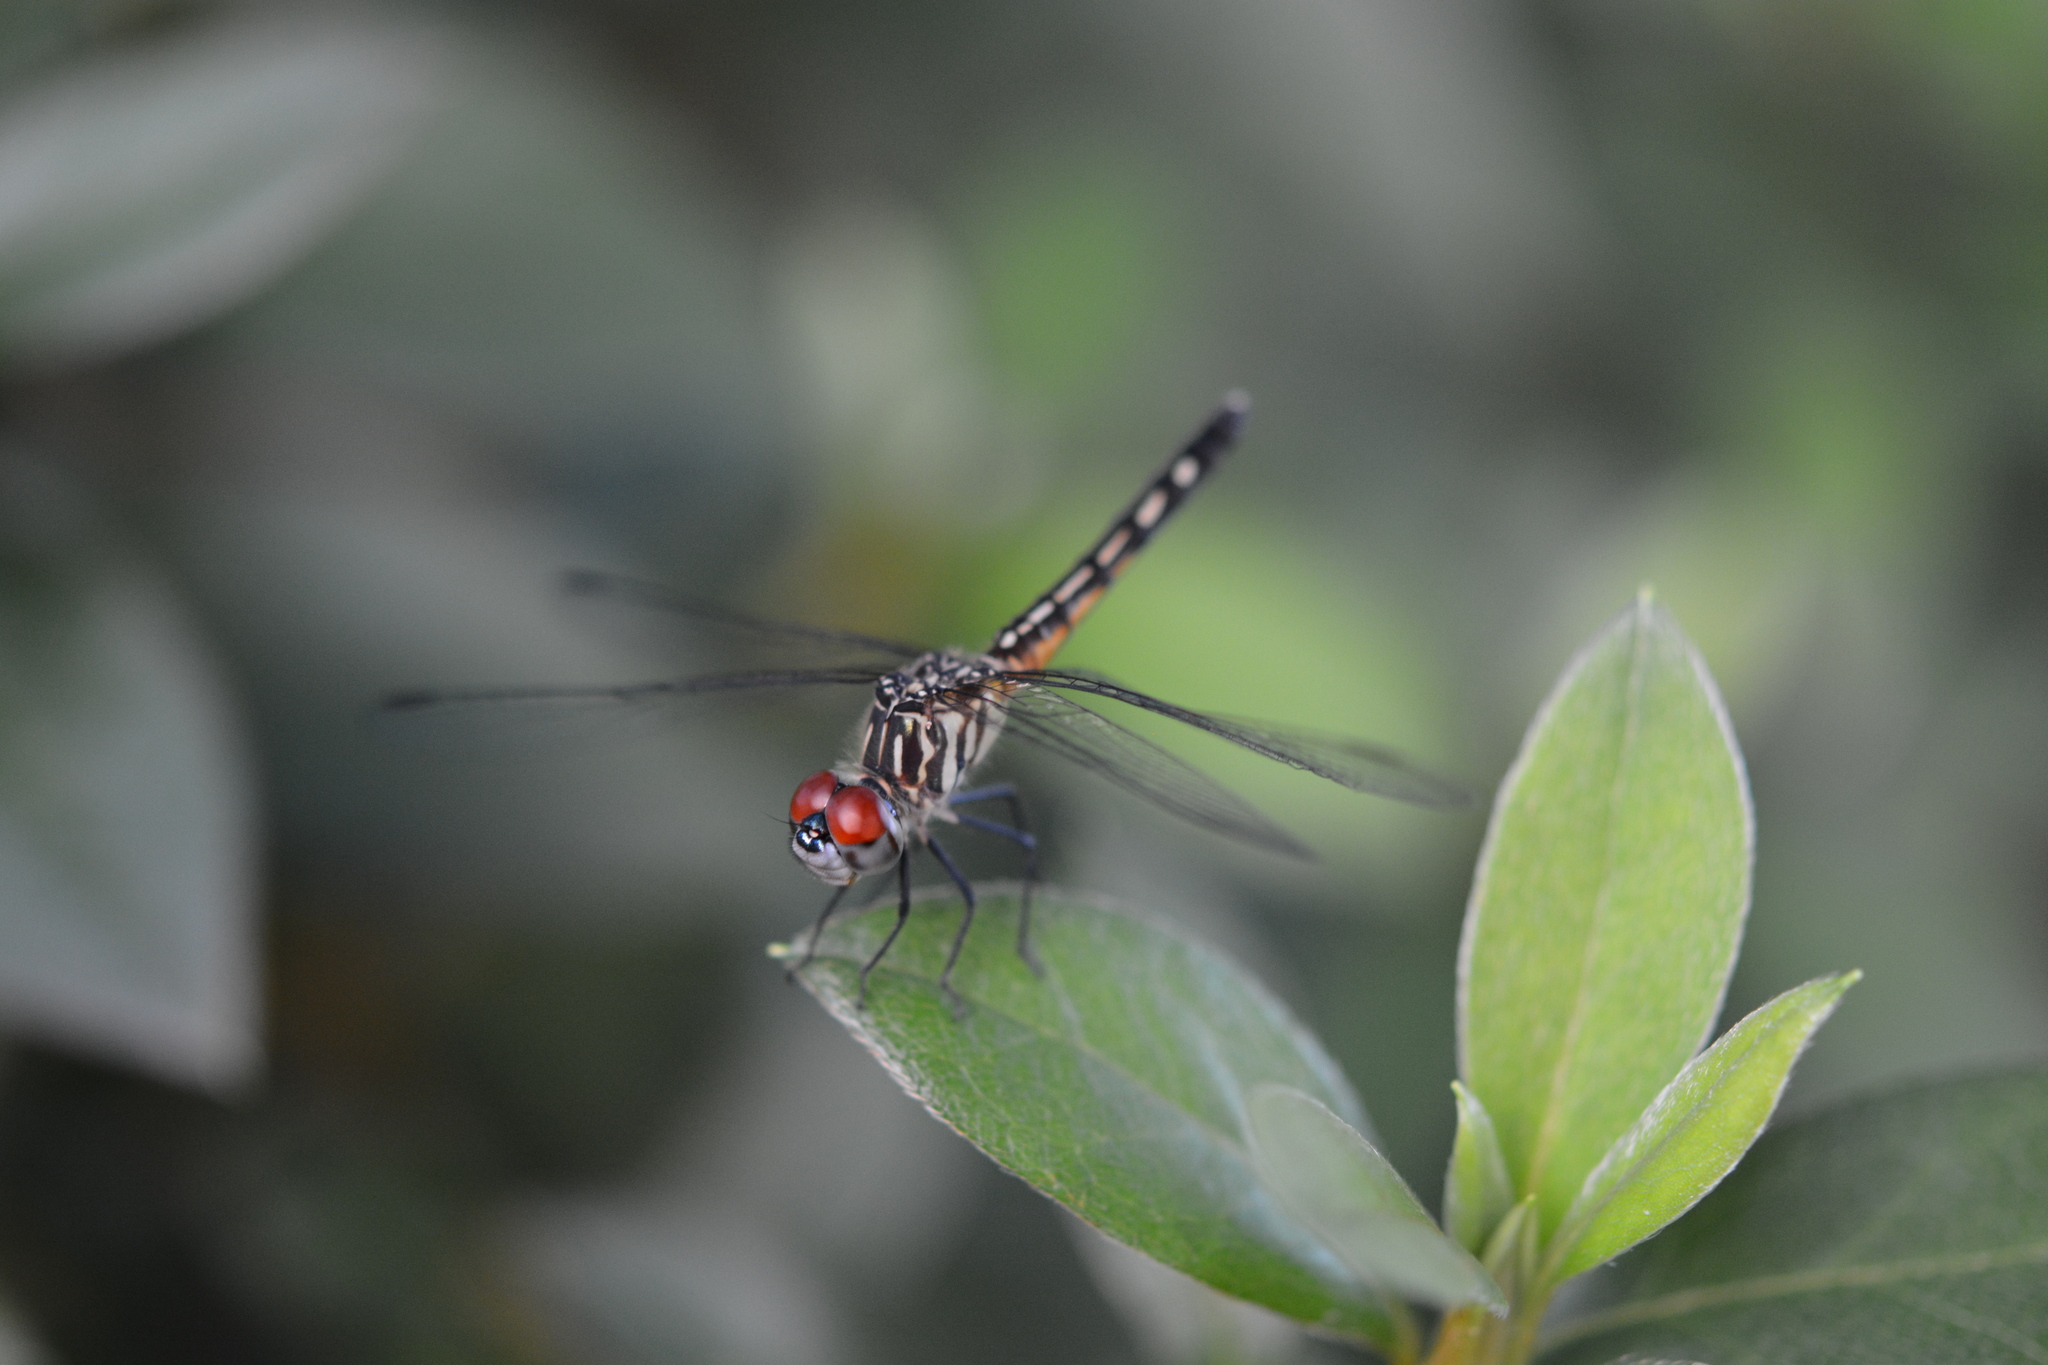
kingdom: Animalia
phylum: Arthropoda
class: Insecta
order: Odonata
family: Libellulidae
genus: Pachydiplax
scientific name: Pachydiplax longipennis
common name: Blue dasher
